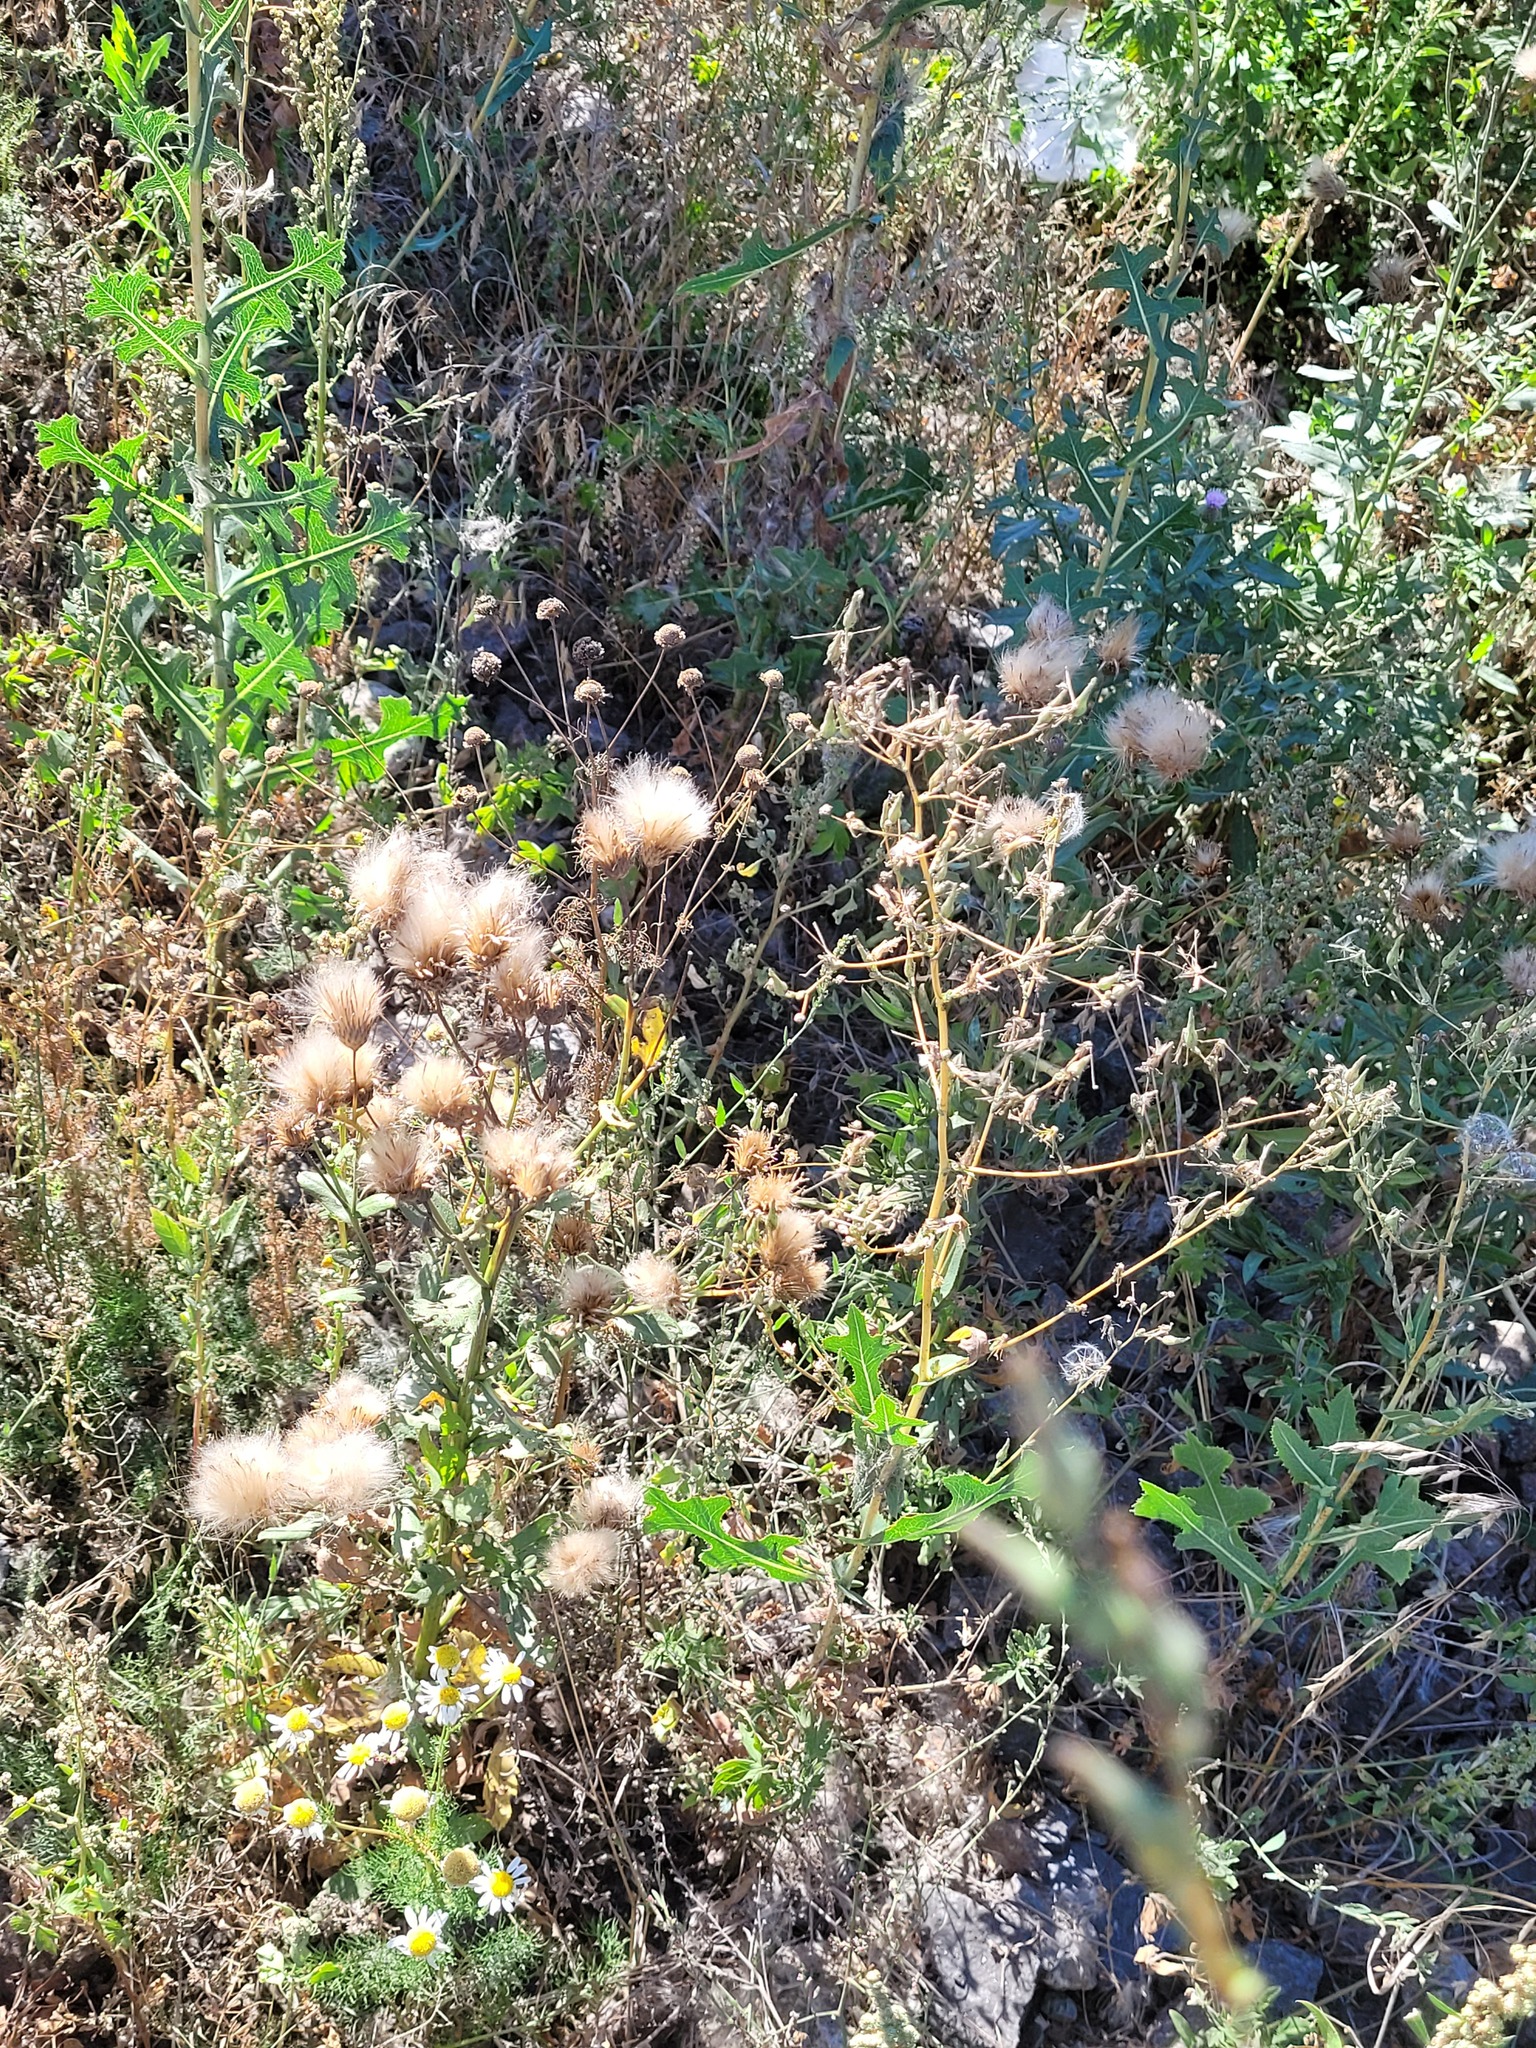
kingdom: Plantae
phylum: Tracheophyta
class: Magnoliopsida
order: Asterales
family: Asteraceae
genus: Cirsium
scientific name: Cirsium arvense
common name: Creeping thistle
